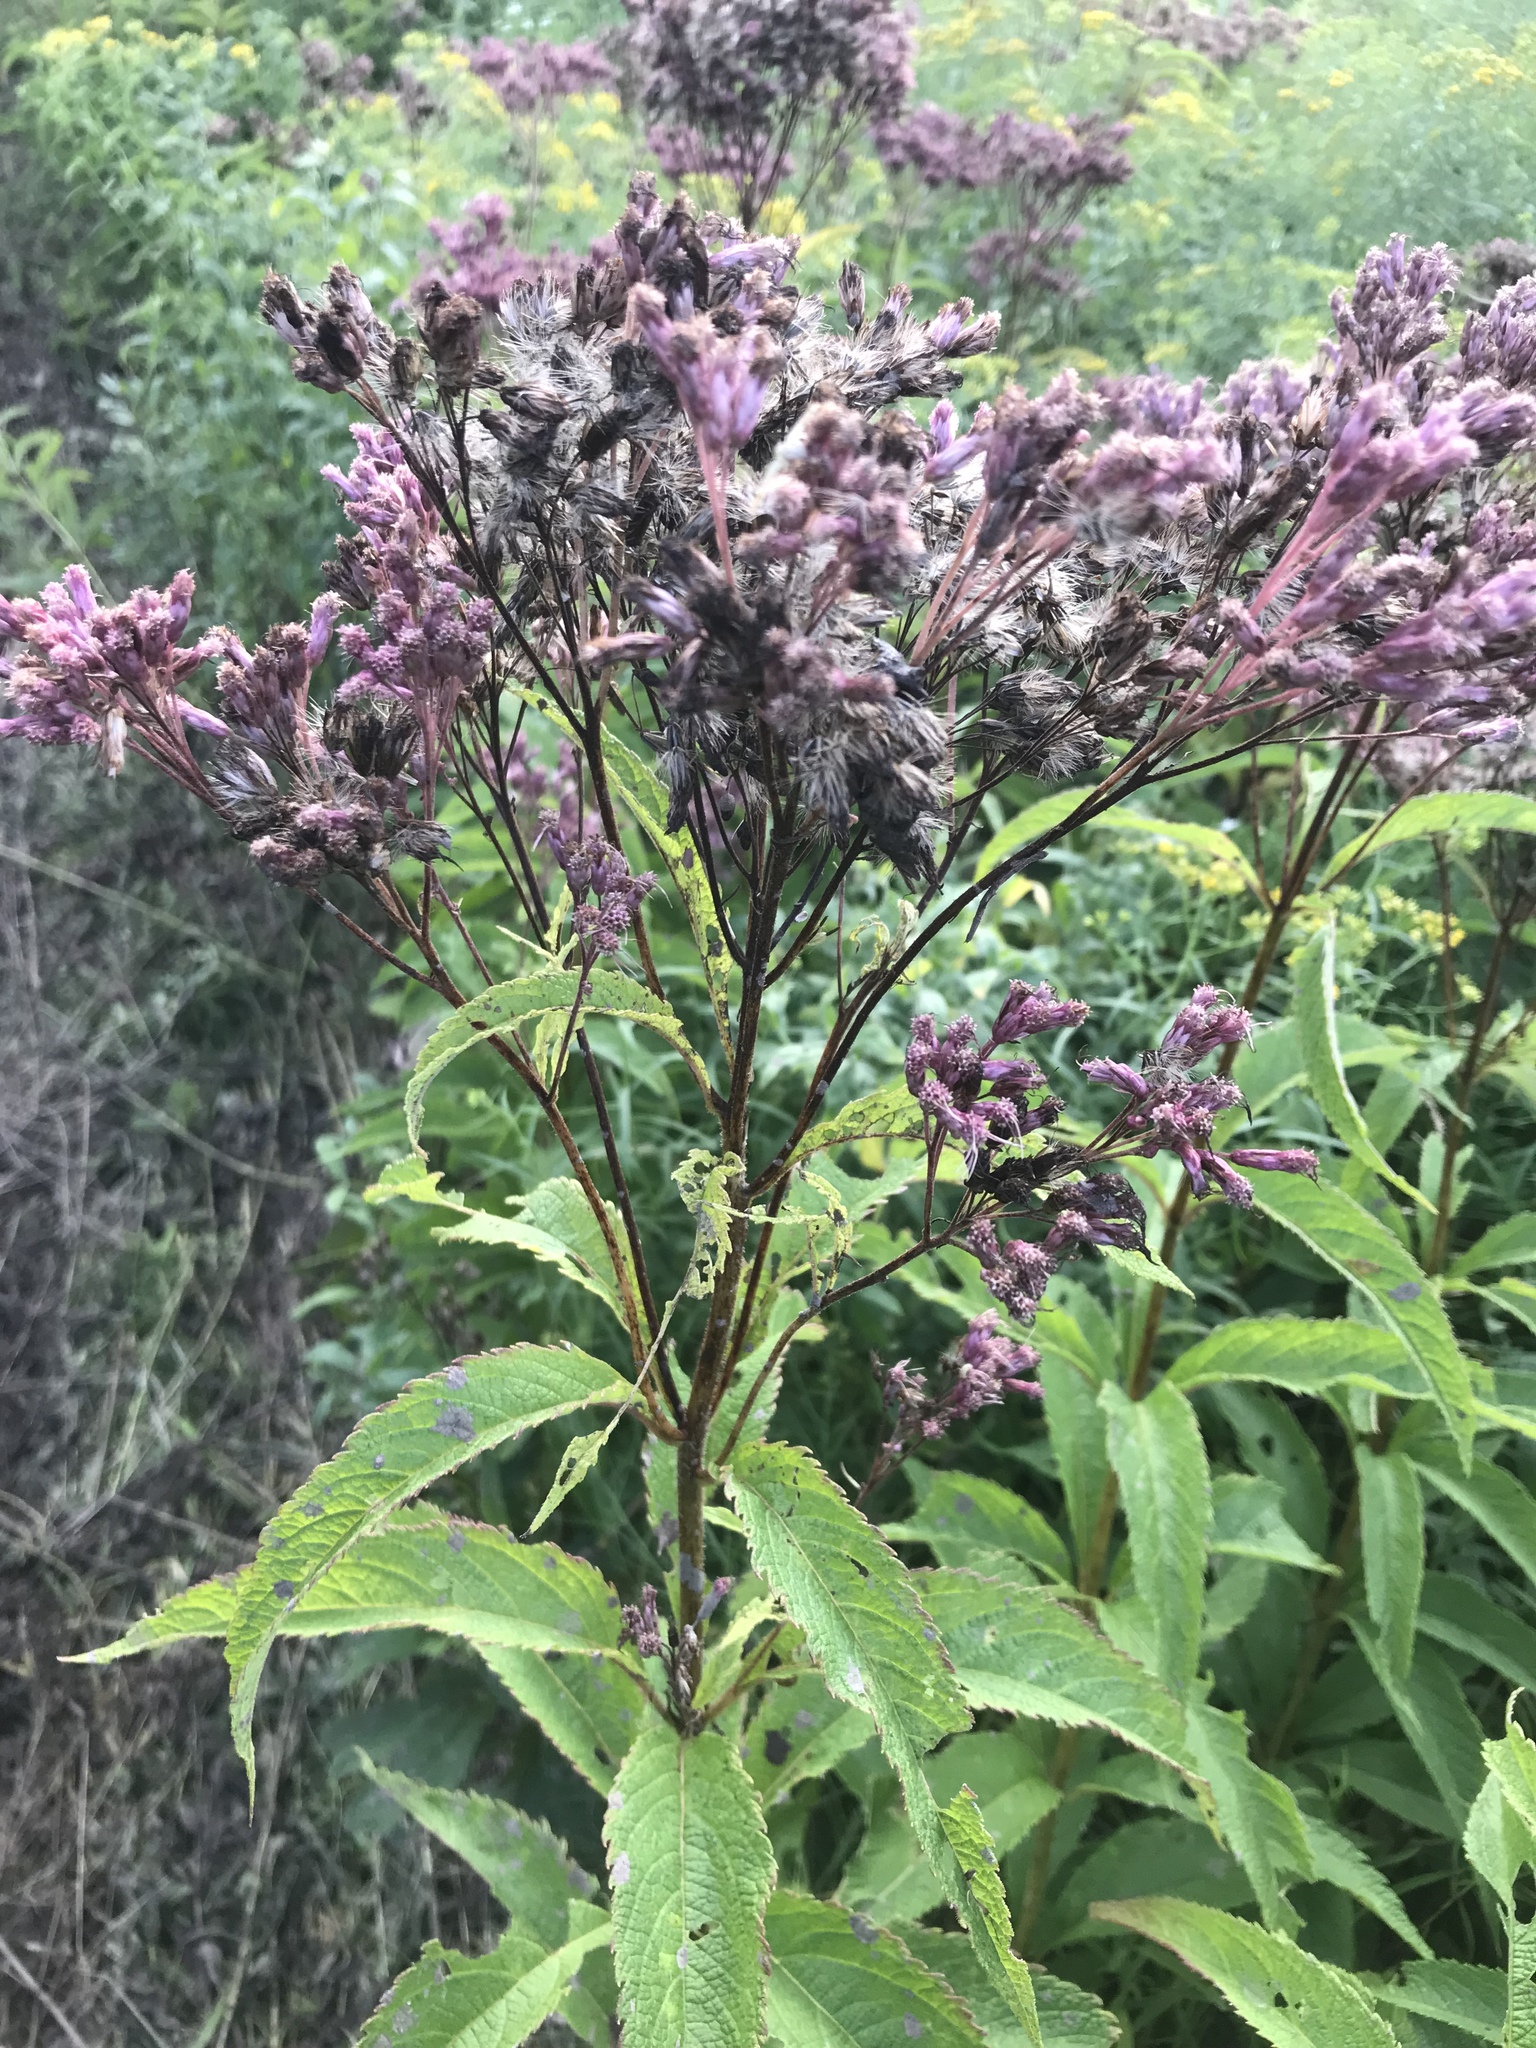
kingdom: Plantae
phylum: Tracheophyta
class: Magnoliopsida
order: Asterales
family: Asteraceae
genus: Eutrochium
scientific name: Eutrochium maculatum
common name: Spotted joe pye weed
